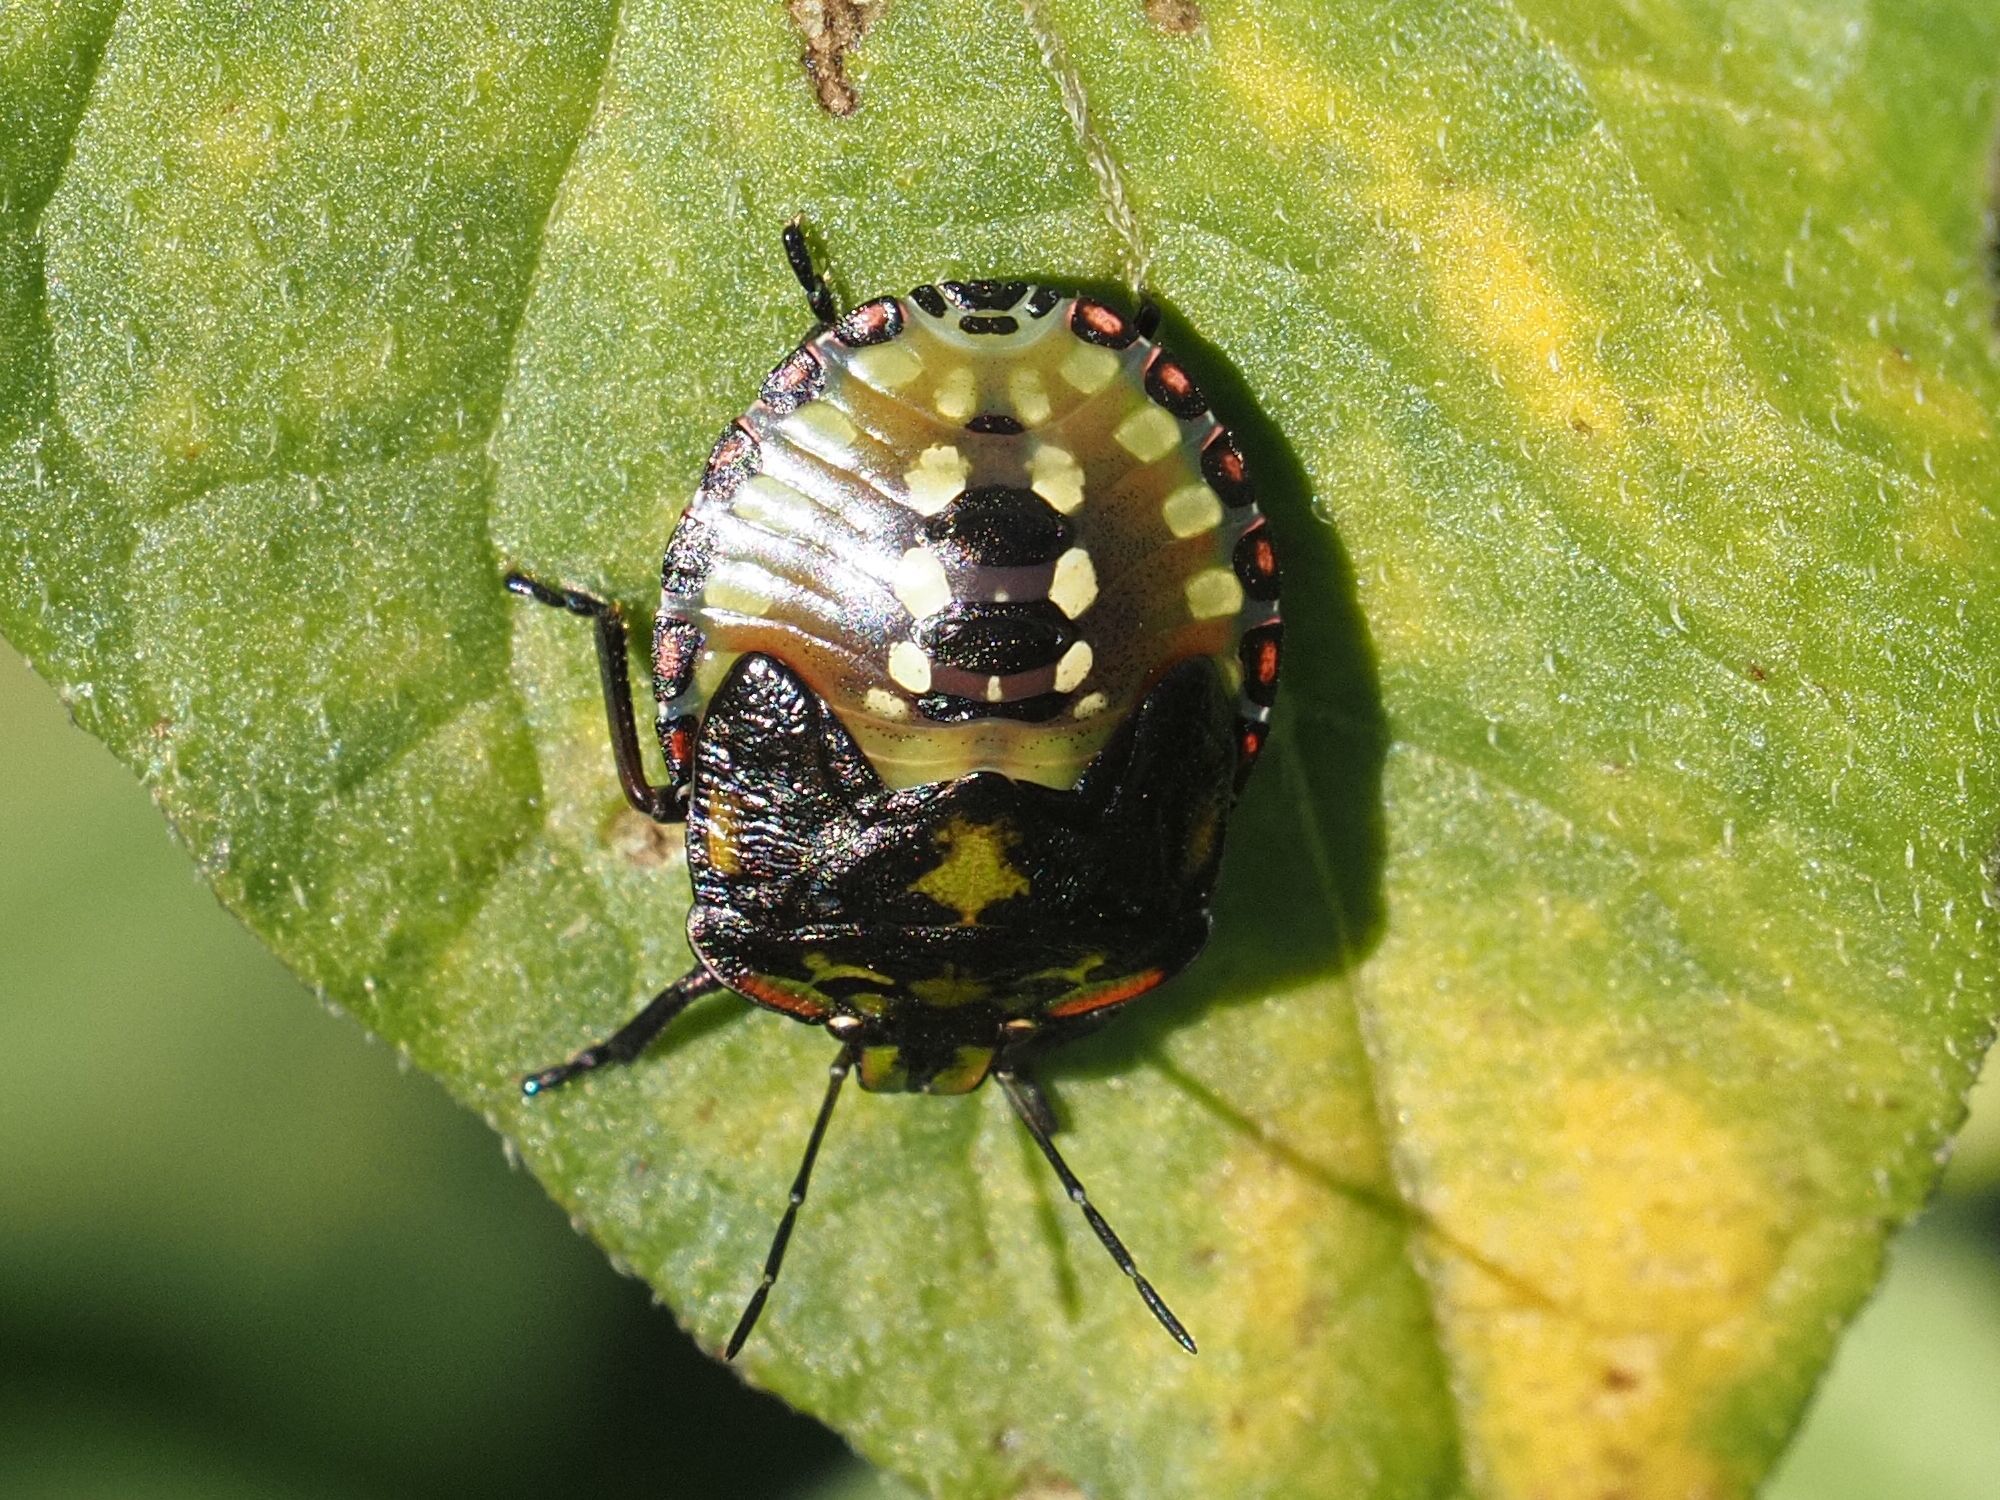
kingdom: Animalia
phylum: Arthropoda
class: Insecta
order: Hemiptera
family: Pentatomidae
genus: Nezara
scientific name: Nezara viridula
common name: Southern green stink bug
